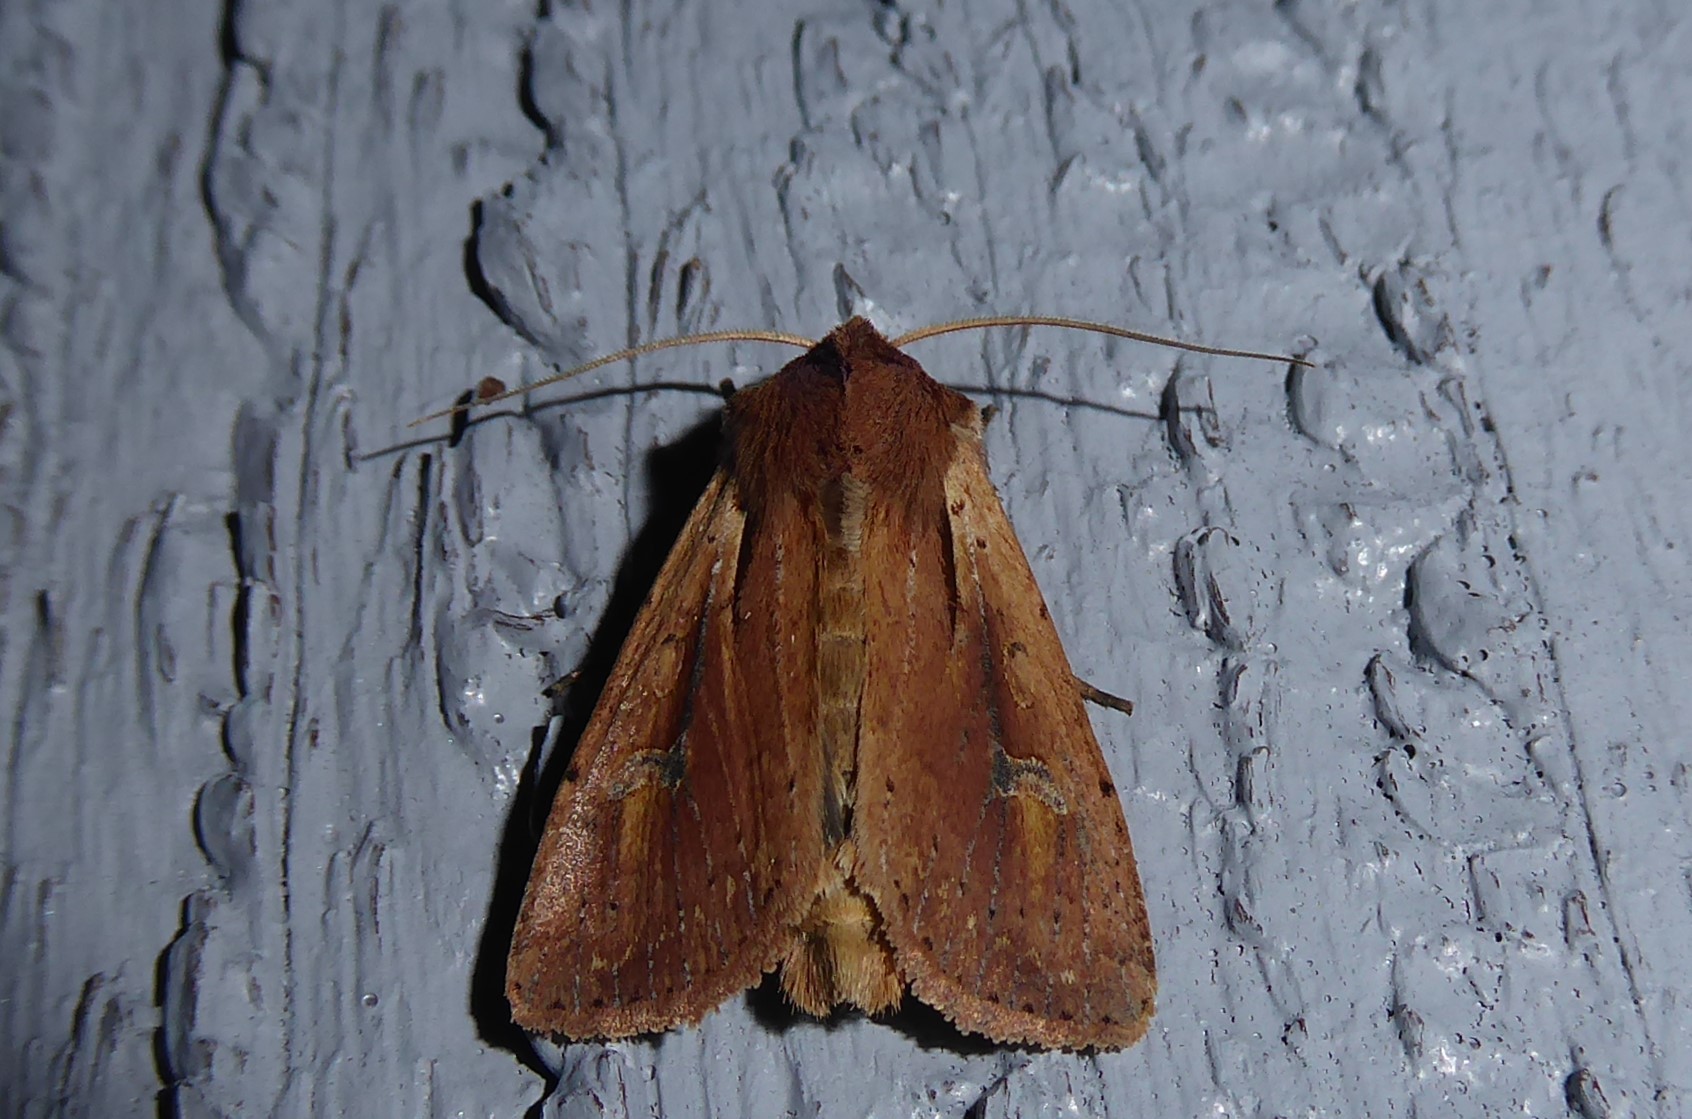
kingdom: Animalia
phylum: Arthropoda
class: Insecta
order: Lepidoptera
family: Noctuidae
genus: Ichneutica
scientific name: Ichneutica atristriga
